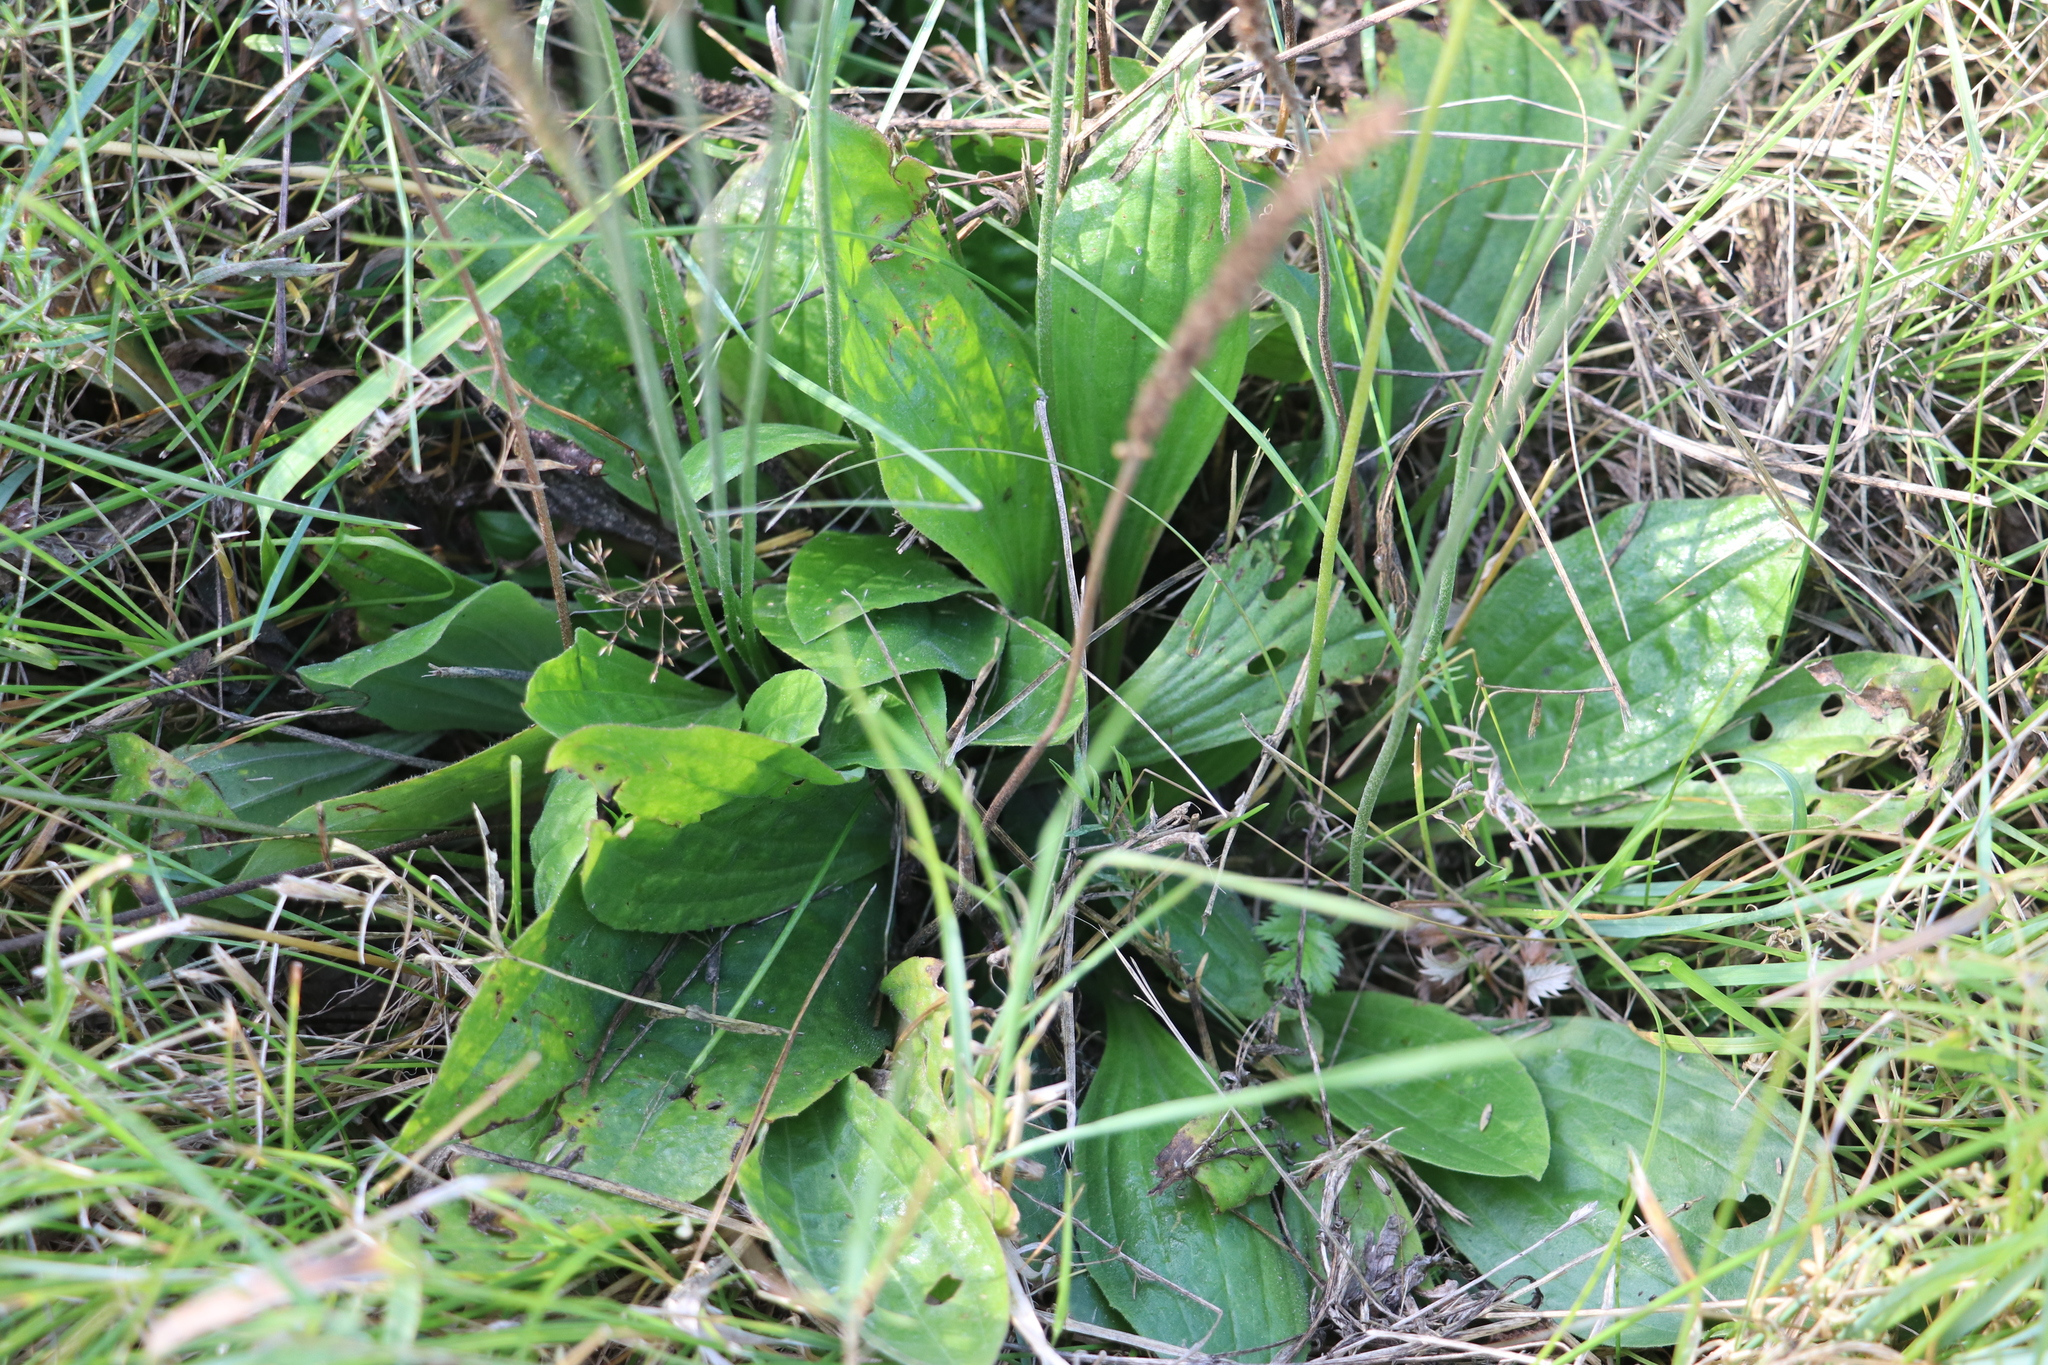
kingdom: Plantae
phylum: Tracheophyta
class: Magnoliopsida
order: Lamiales
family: Plantaginaceae
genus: Plantago
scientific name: Plantago media
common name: Hoary plantain
